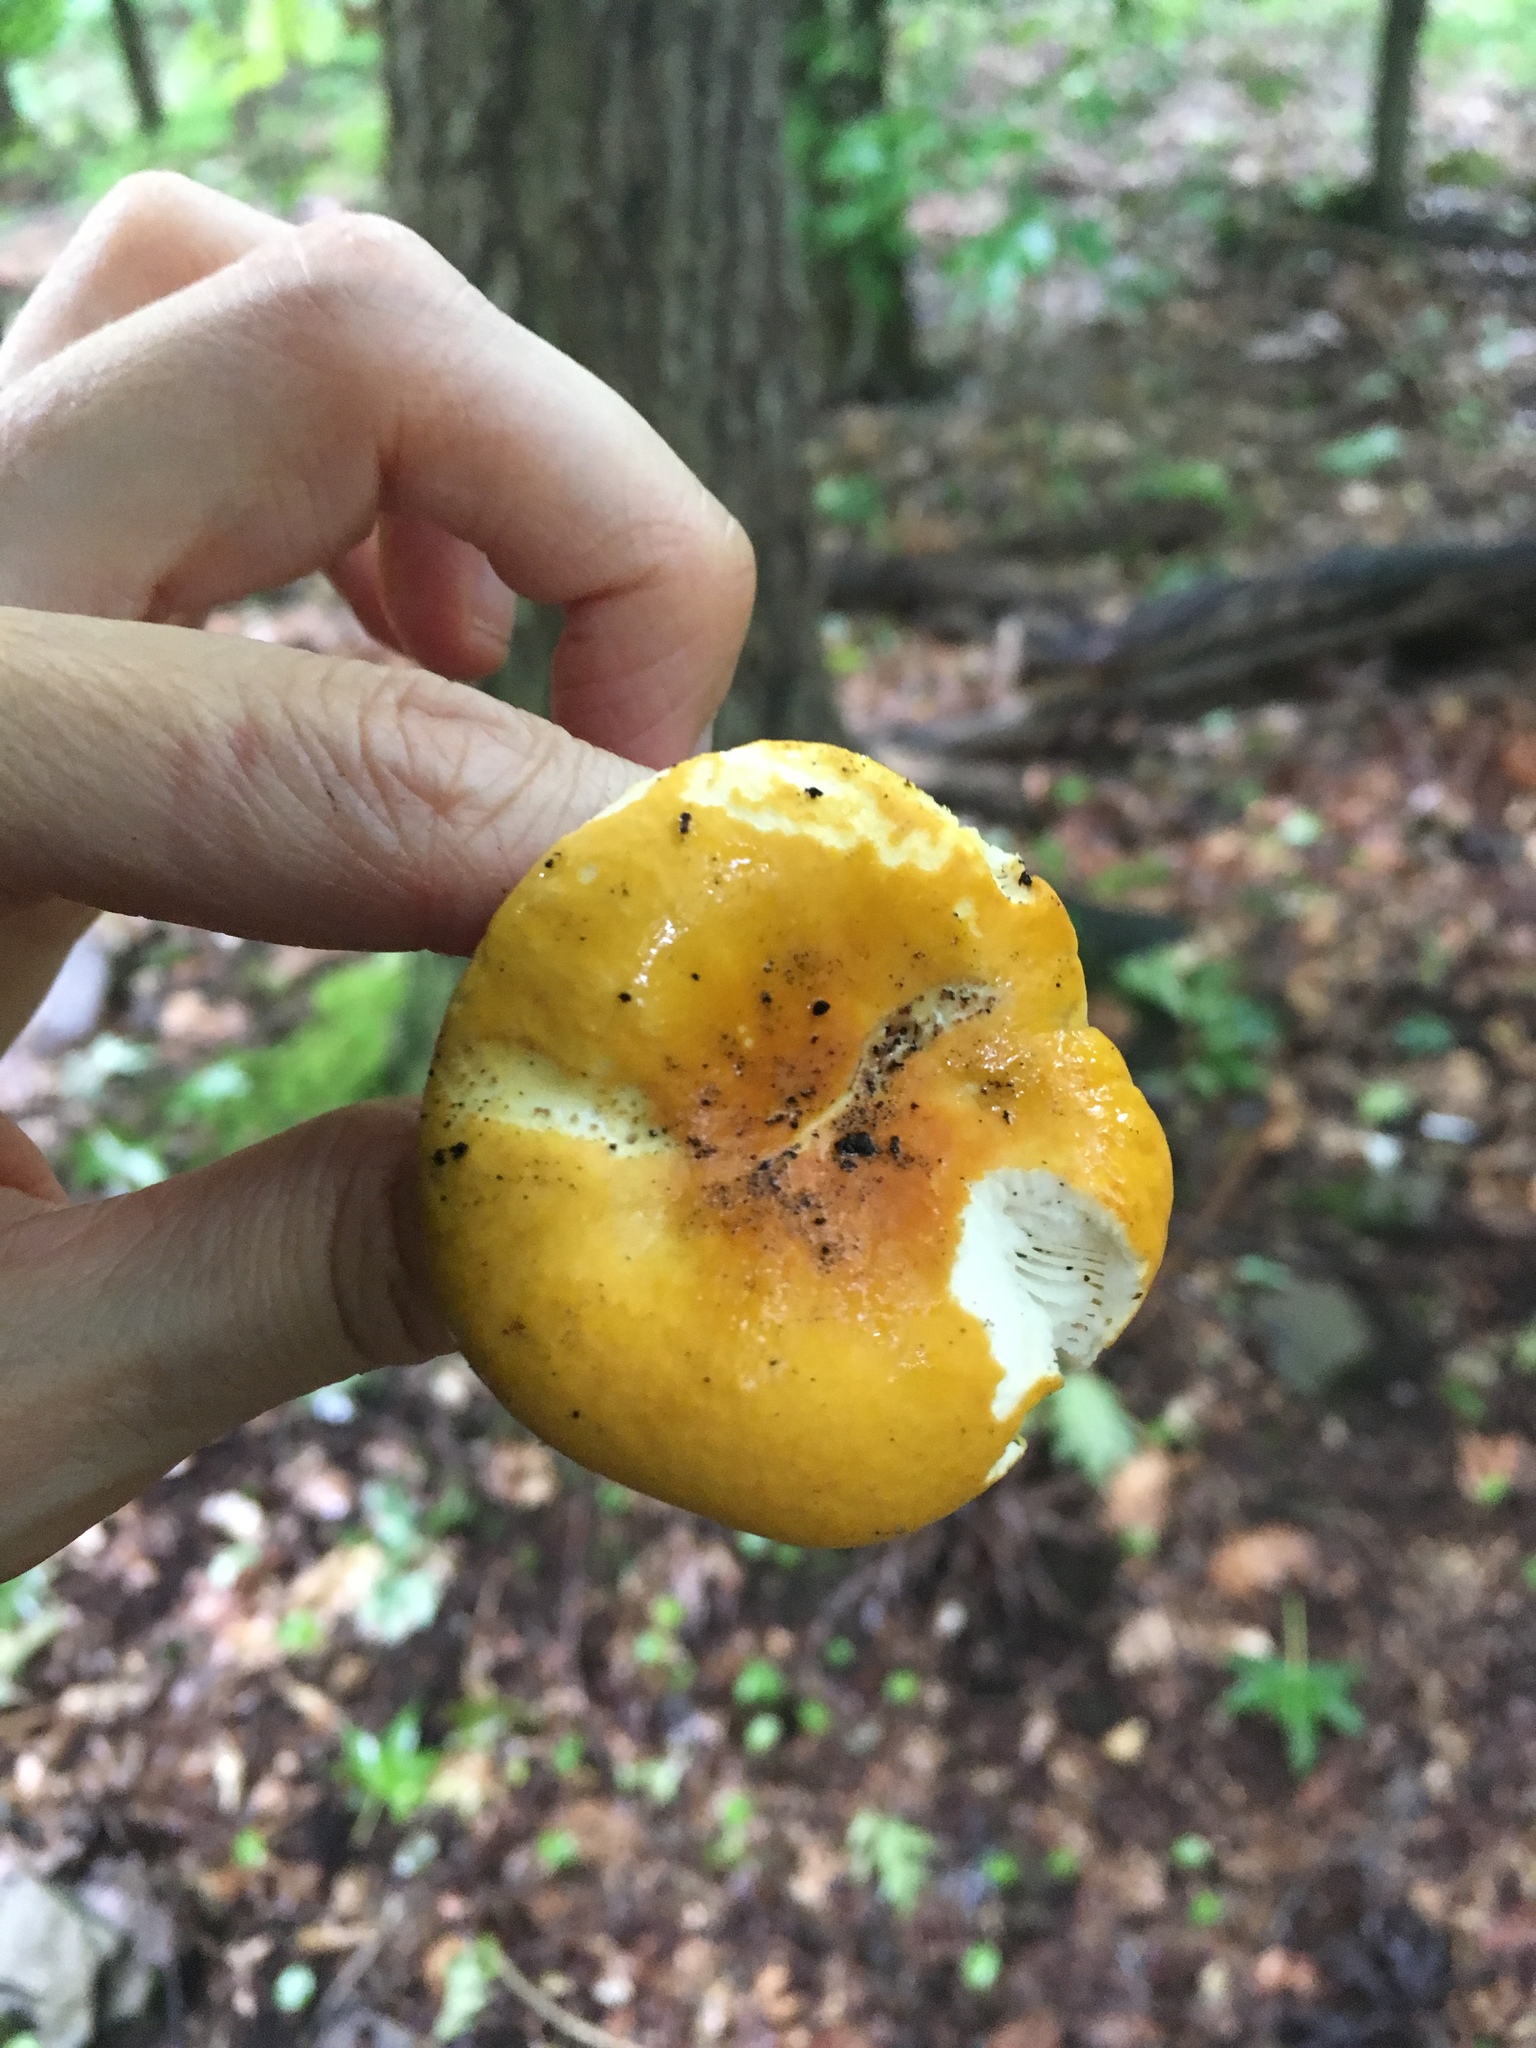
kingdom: Fungi
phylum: Basidiomycota
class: Agaricomycetes
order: Russulales
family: Russulaceae
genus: Russula
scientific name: Russula claroflava
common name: The yellow swamp brittlegill
